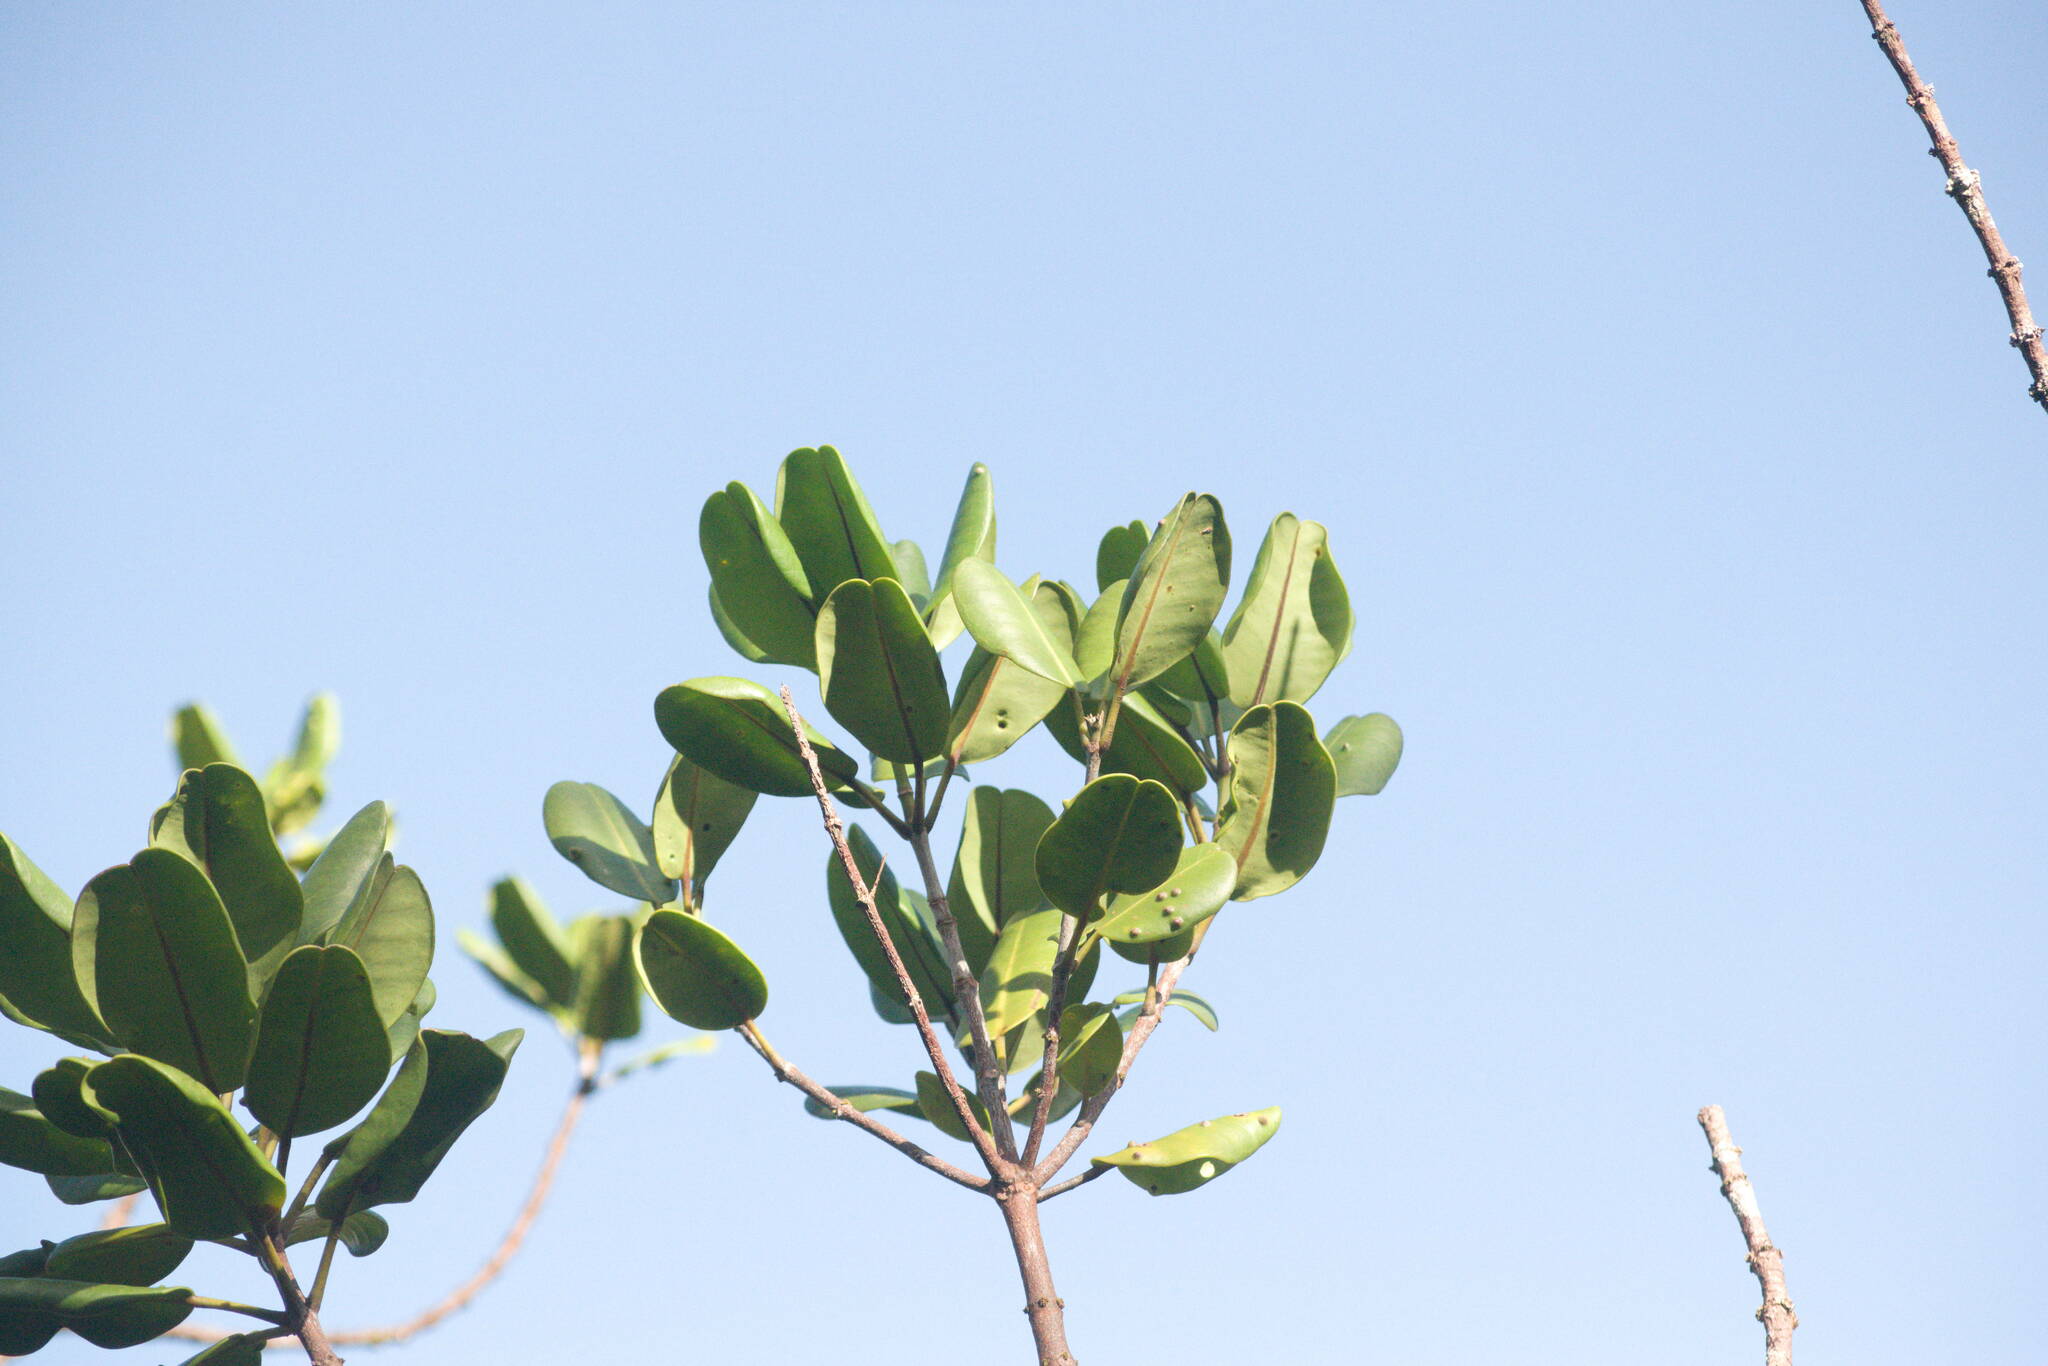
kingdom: Plantae
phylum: Tracheophyta
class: Magnoliopsida
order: Sapindales
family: Rutaceae
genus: Melicope
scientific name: Melicope clusiifolia
